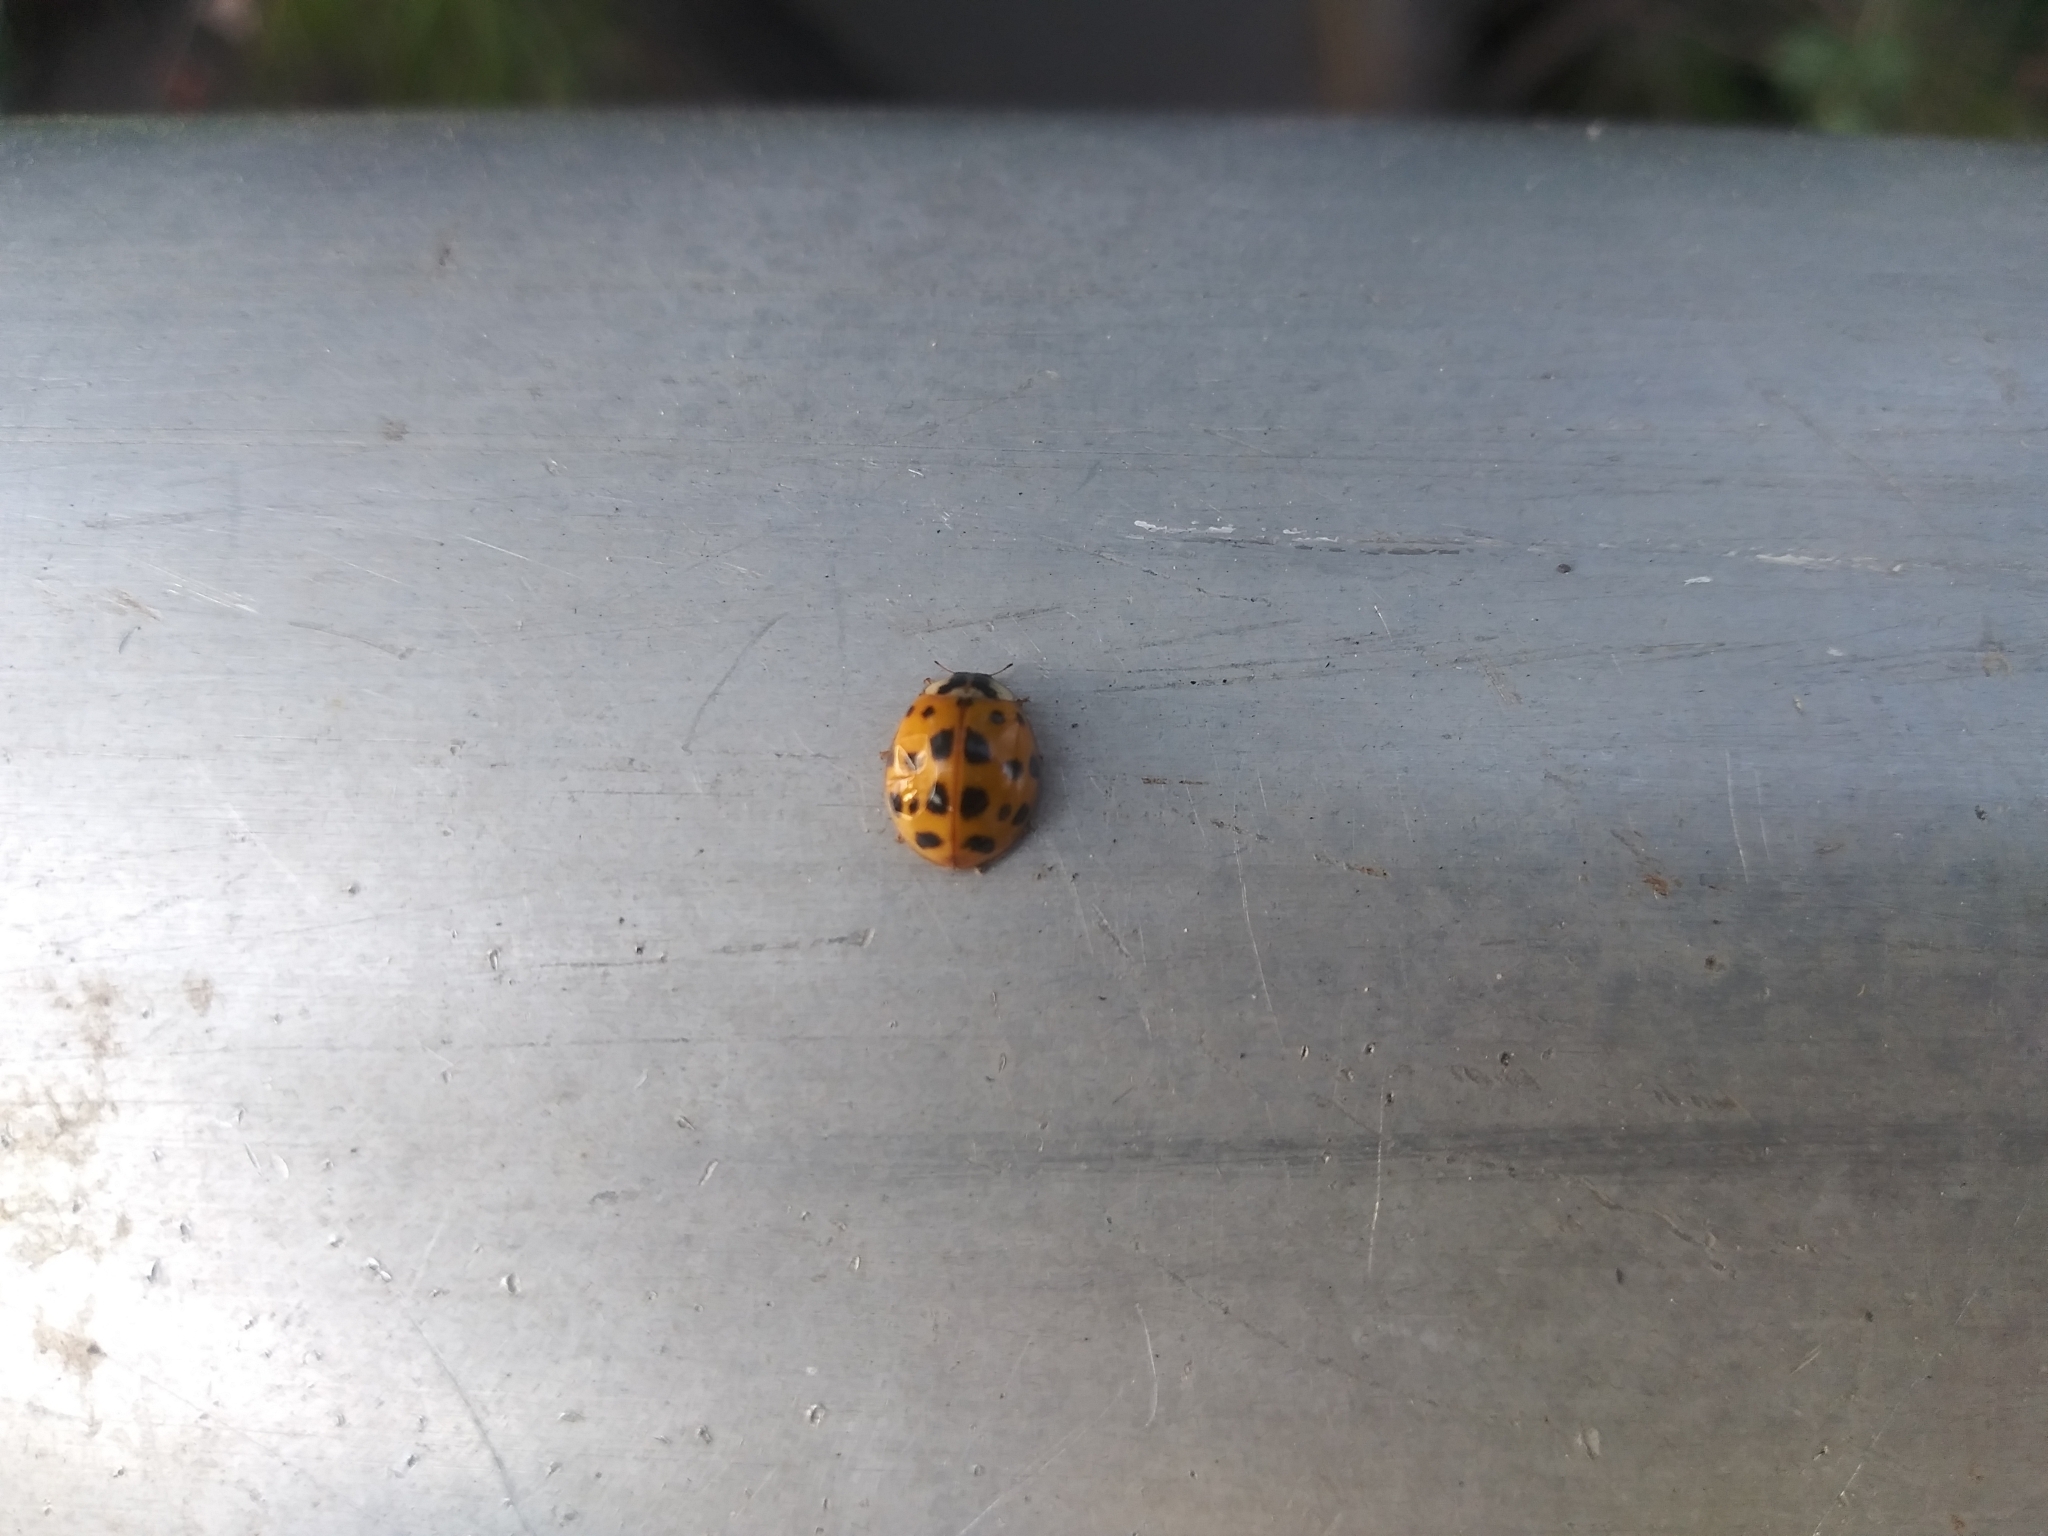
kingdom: Animalia
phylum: Arthropoda
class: Insecta
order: Coleoptera
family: Coccinellidae
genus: Harmonia
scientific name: Harmonia axyridis
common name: Harlequin ladybird
